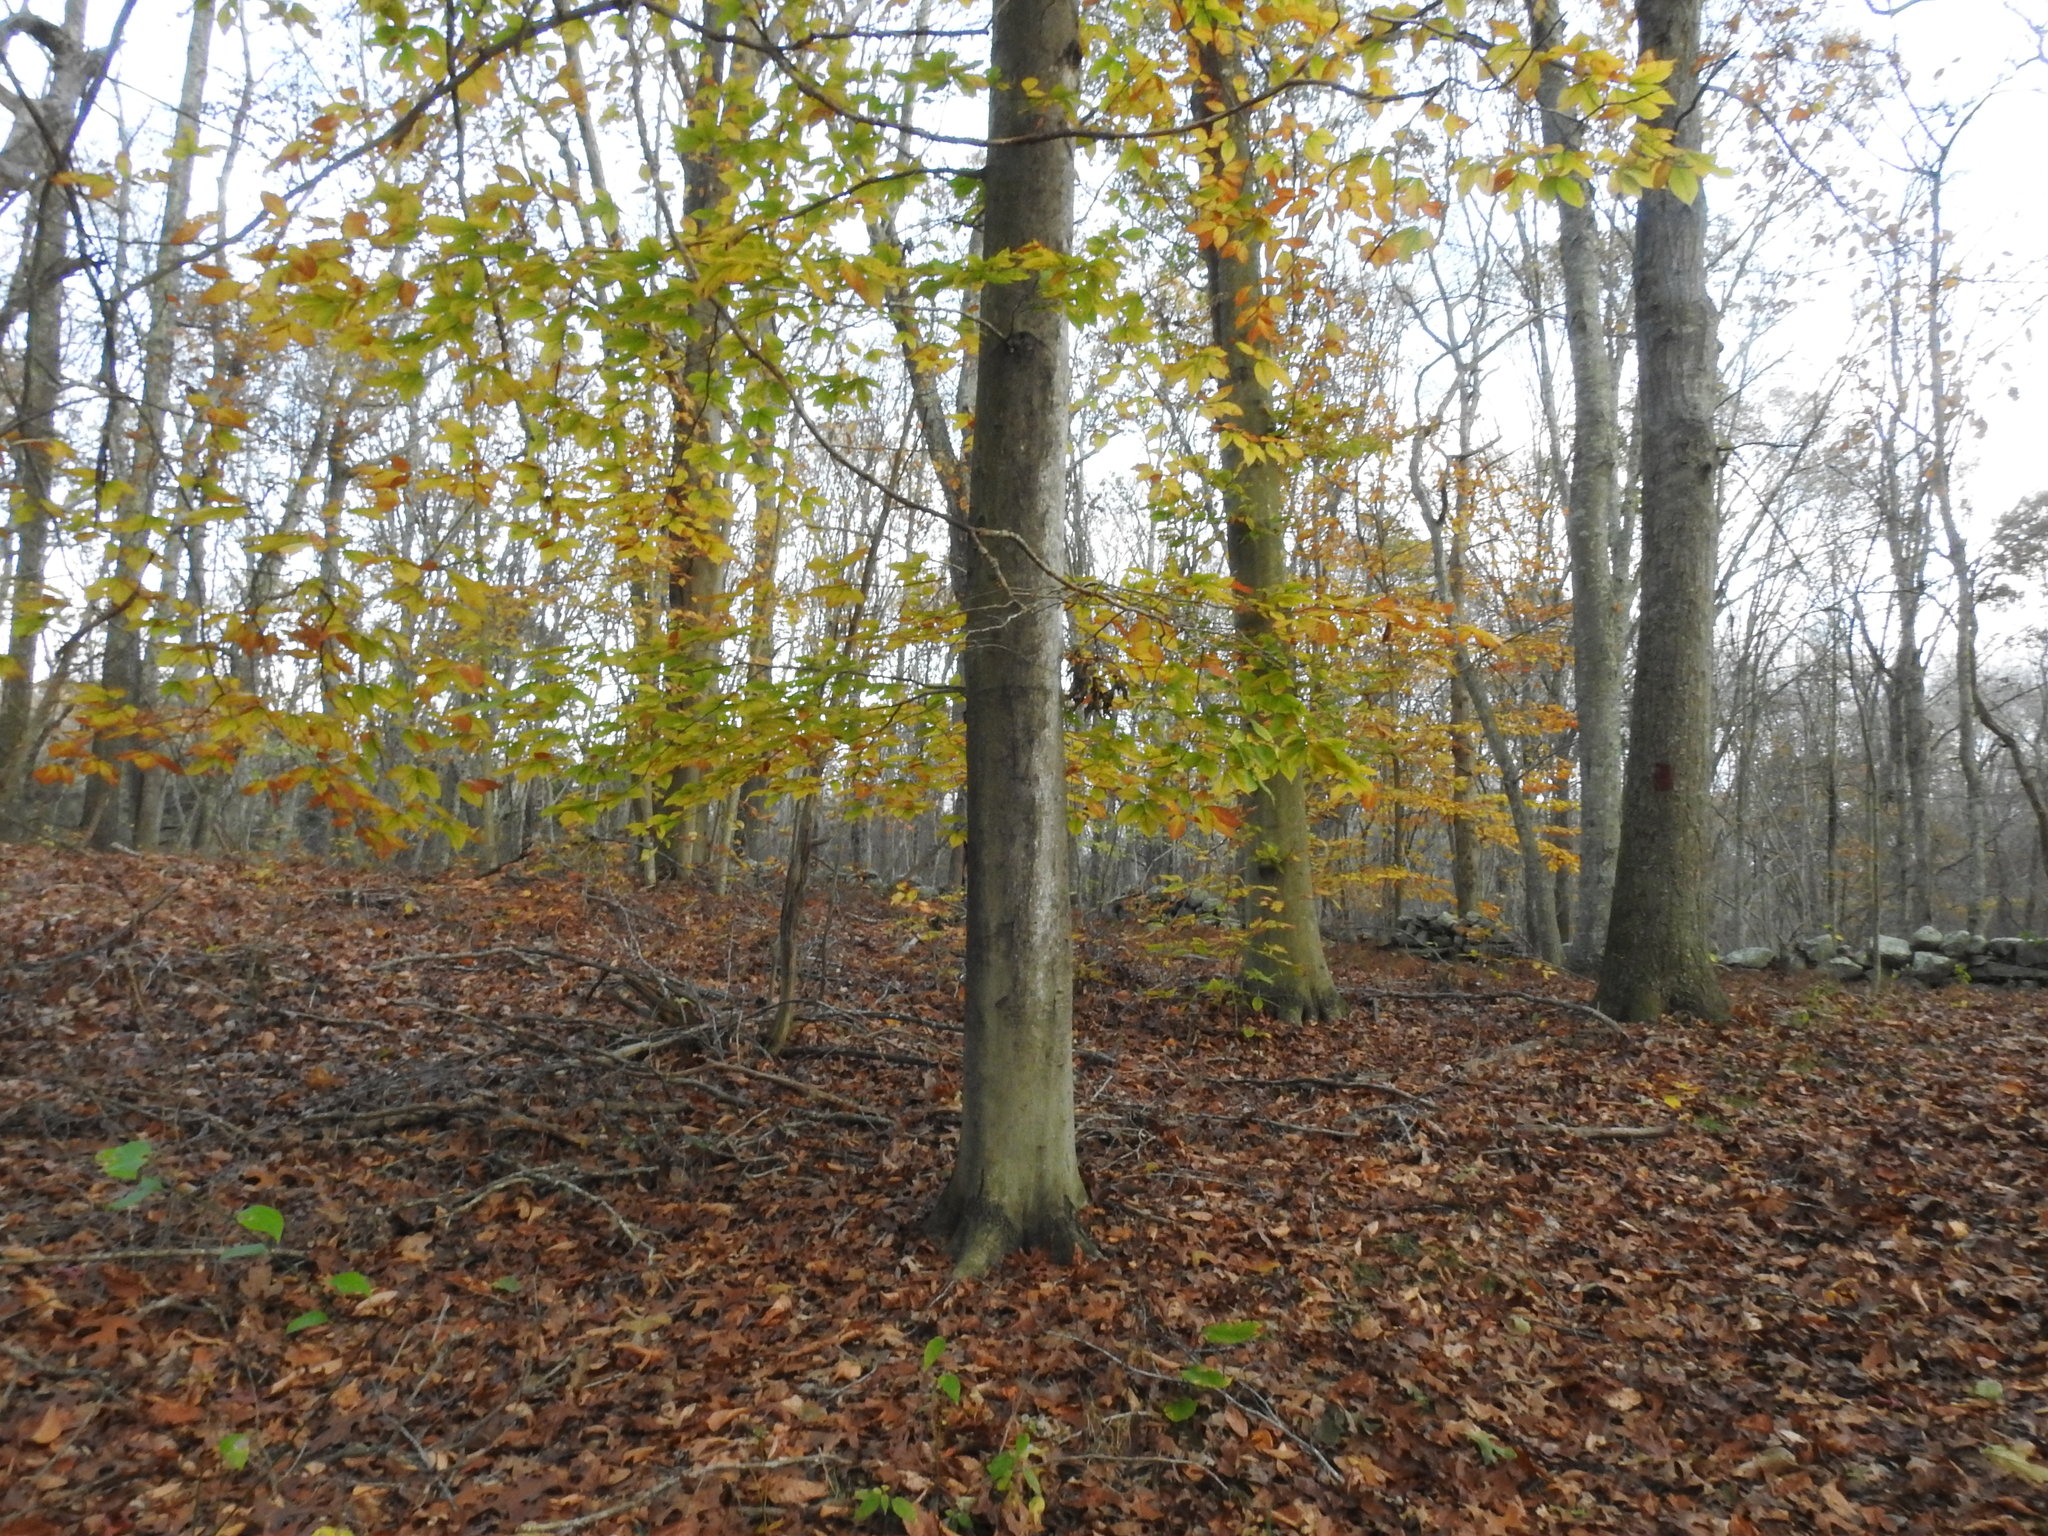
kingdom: Plantae
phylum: Tracheophyta
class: Magnoliopsida
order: Fagales
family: Fagaceae
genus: Fagus
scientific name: Fagus grandifolia
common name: American beech
